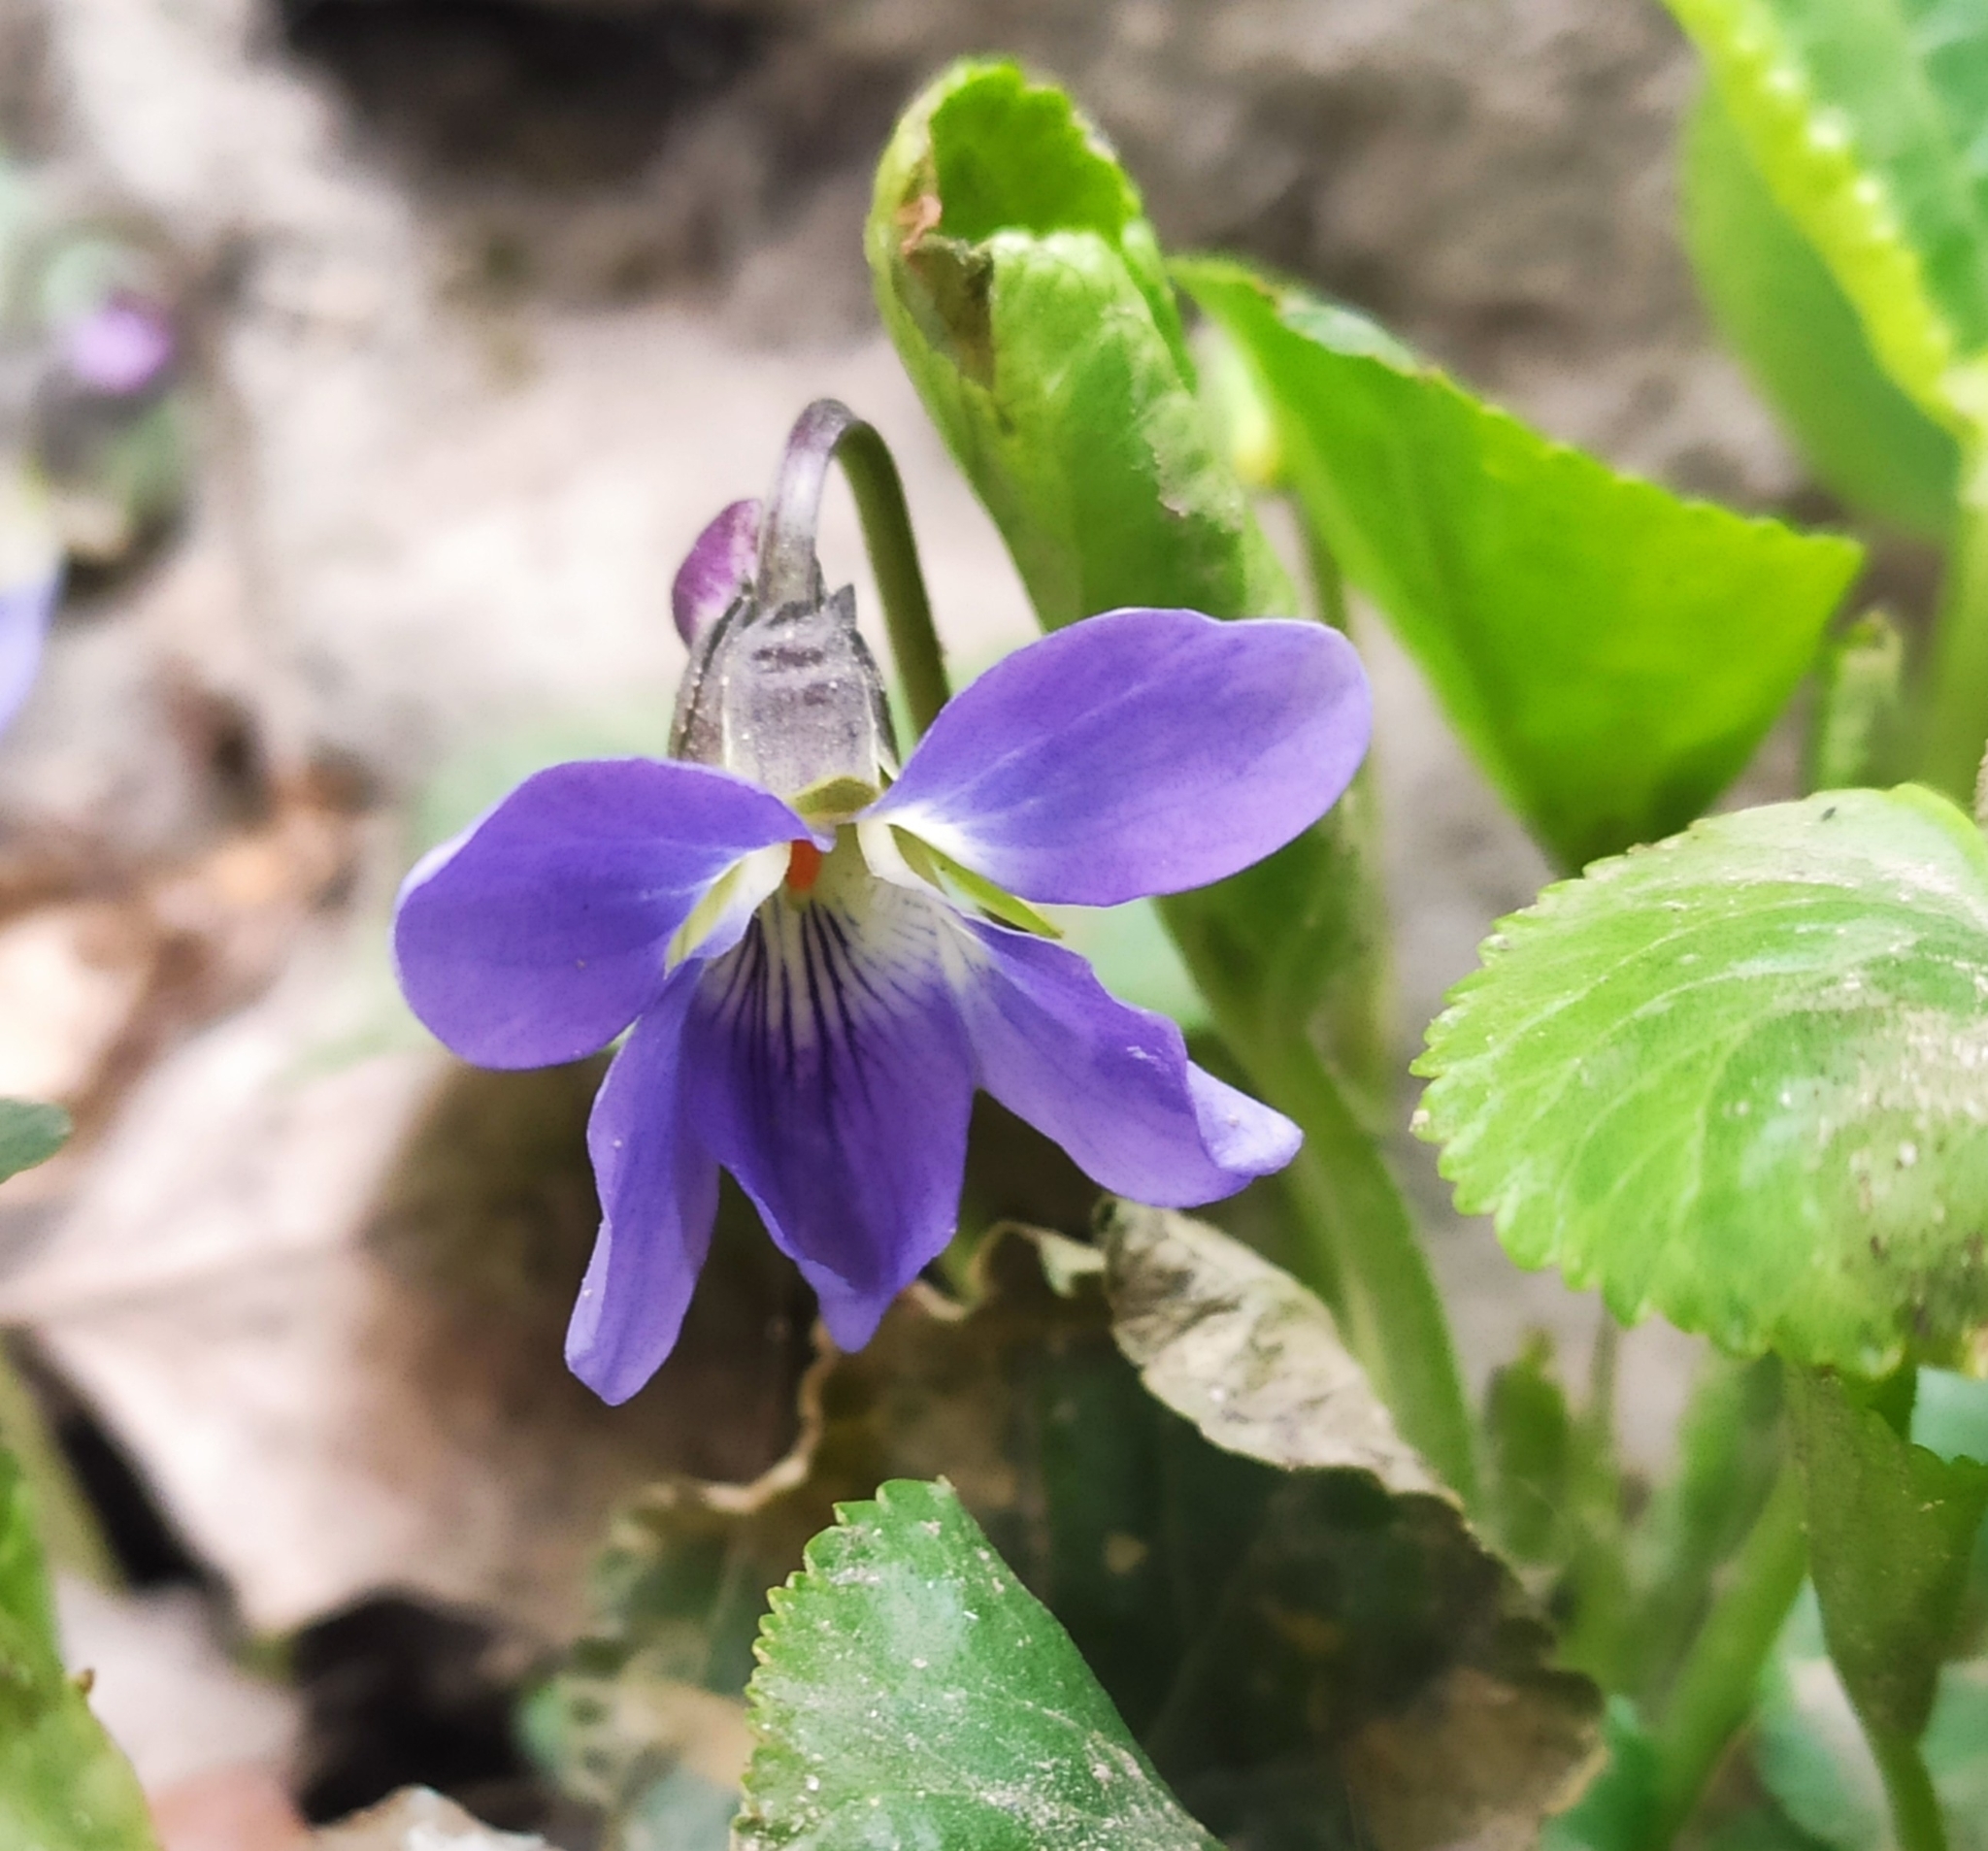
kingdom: Plantae
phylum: Tracheophyta
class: Magnoliopsida
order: Malpighiales
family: Violaceae
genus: Viola
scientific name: Viola odorata
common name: Sweet violet
